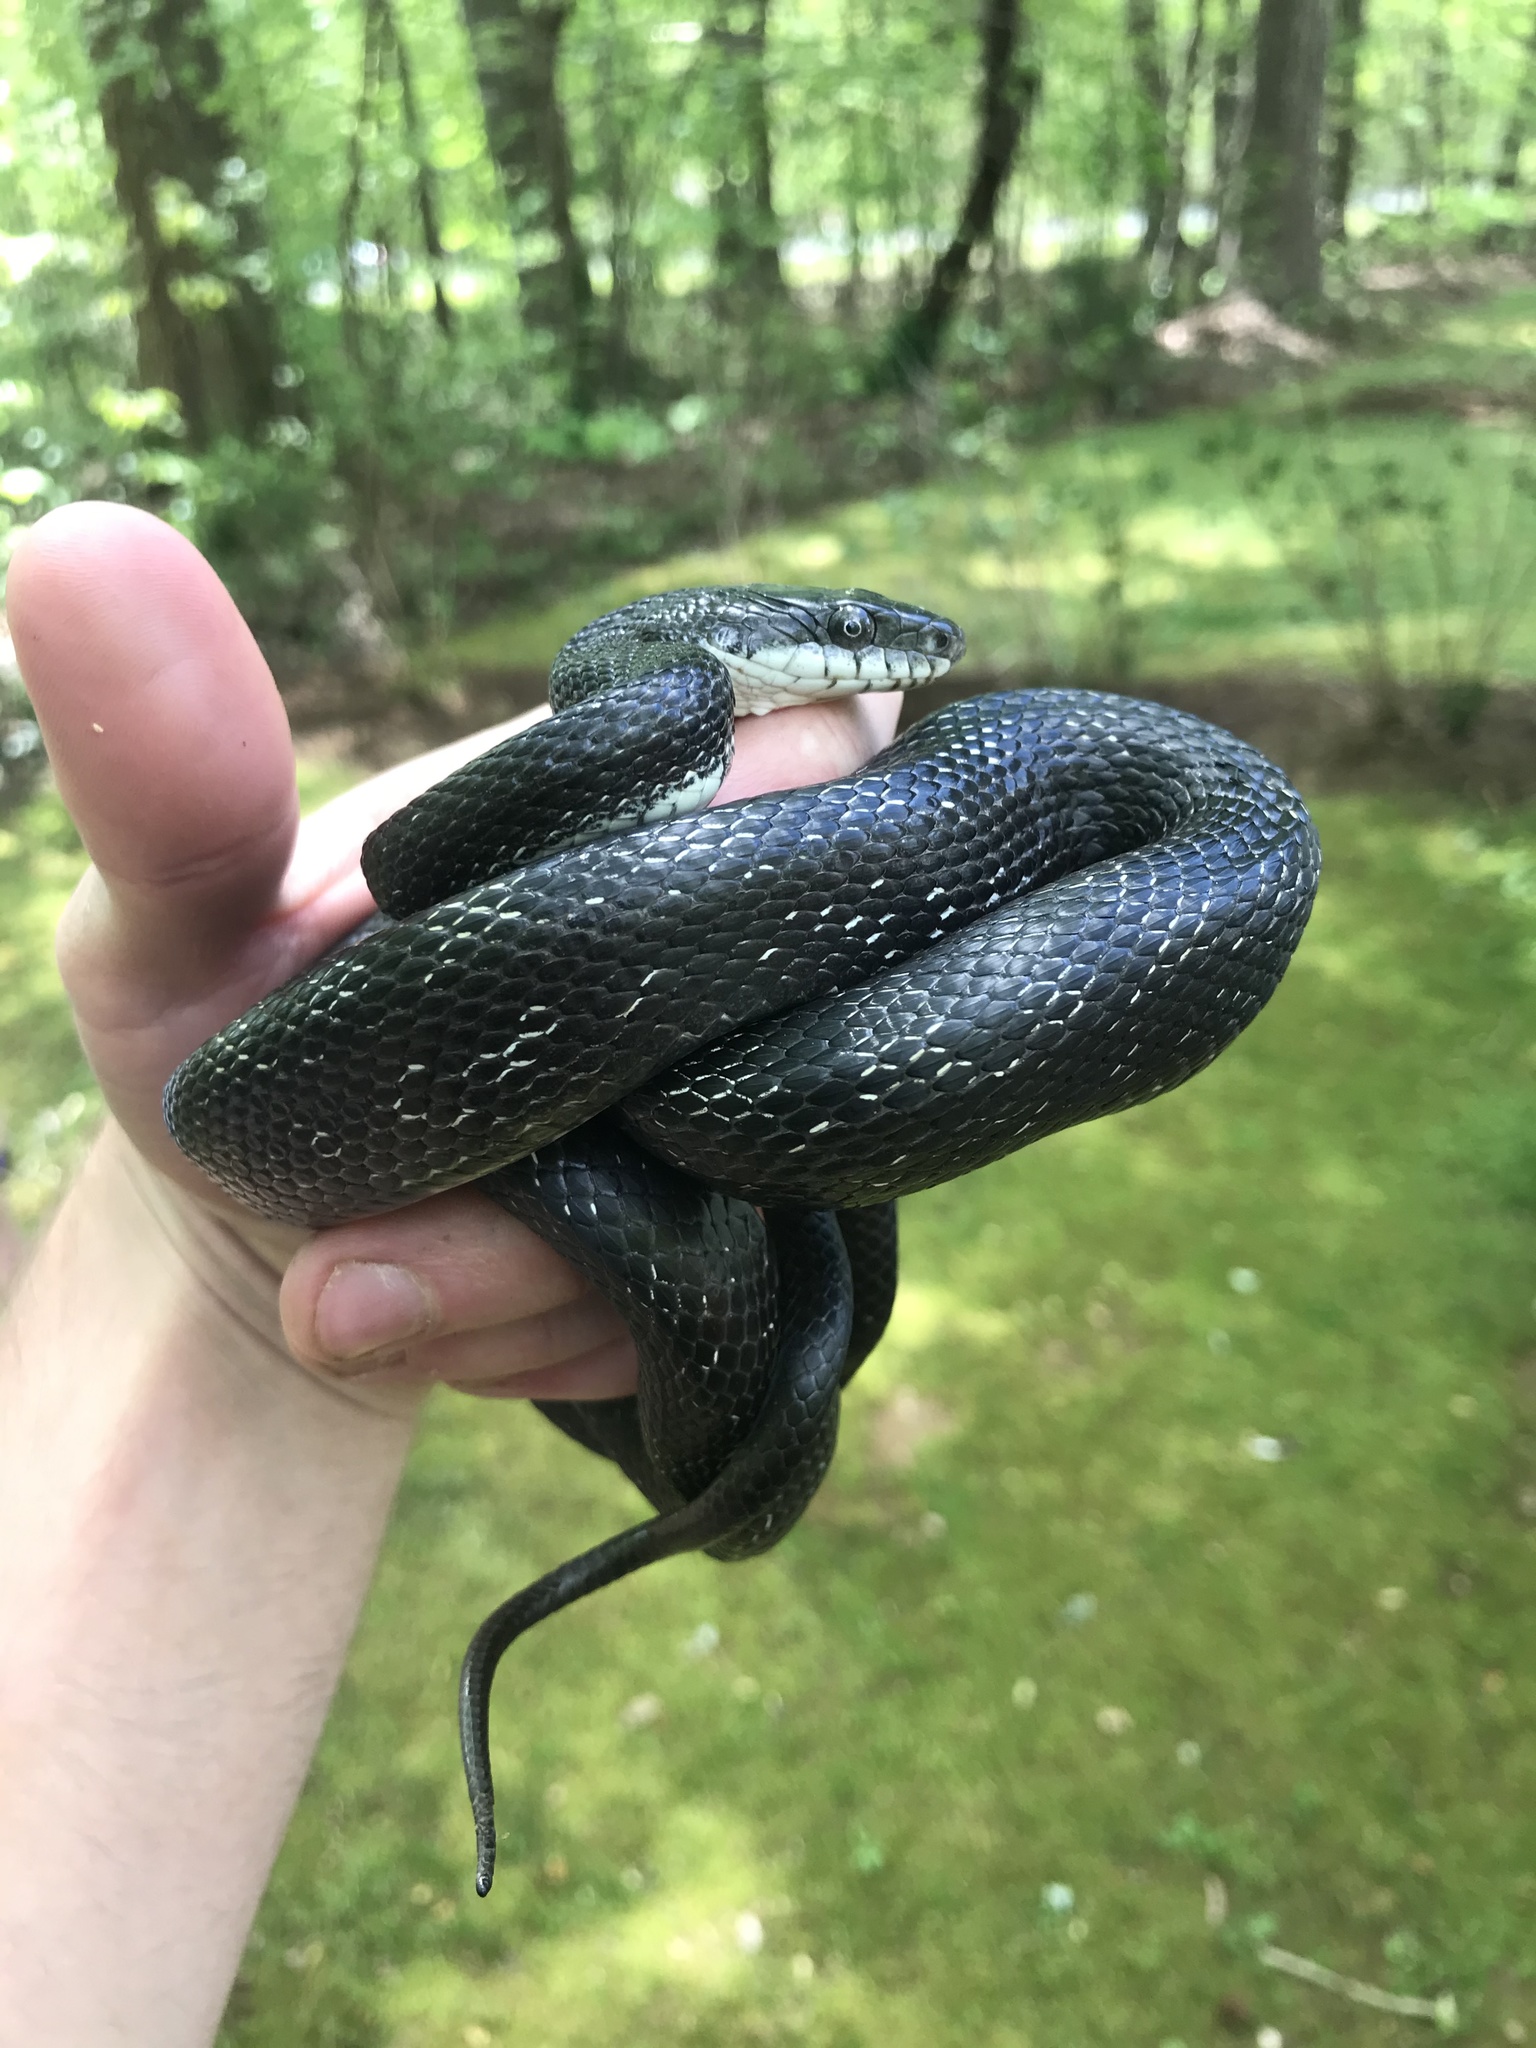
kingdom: Animalia
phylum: Chordata
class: Squamata
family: Colubridae
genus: Pantherophis
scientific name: Pantherophis alleghaniensis
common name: Eastern rat snake
